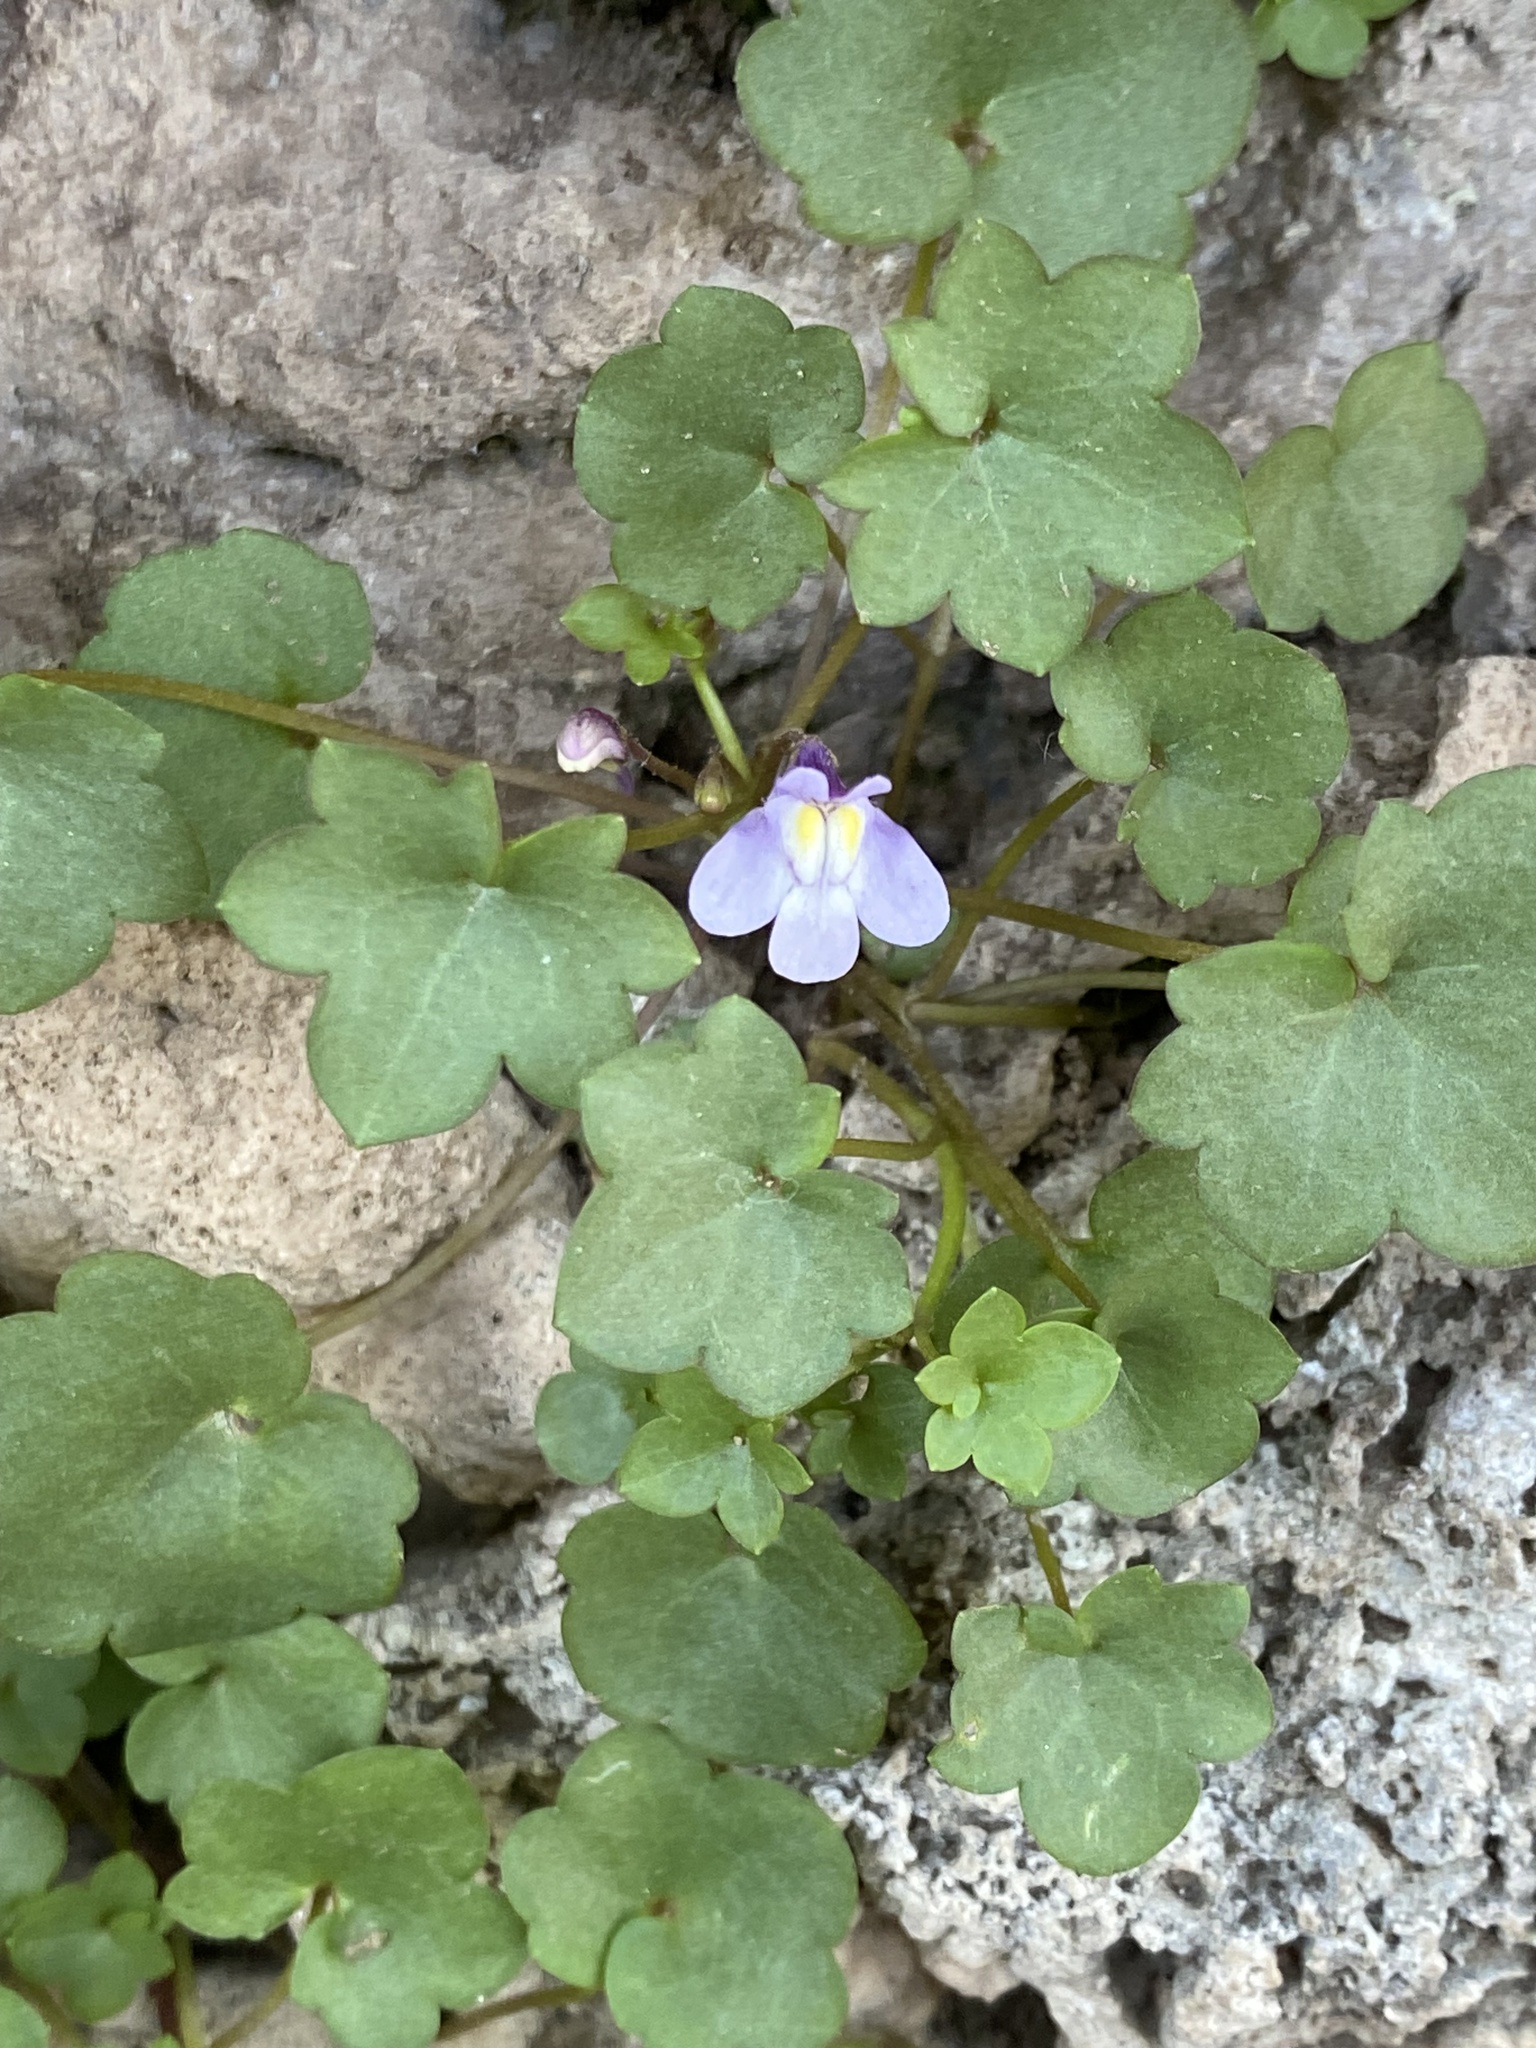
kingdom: Plantae
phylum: Tracheophyta
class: Magnoliopsida
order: Lamiales
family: Plantaginaceae
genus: Cymbalaria
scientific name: Cymbalaria muralis
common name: Ivy-leaved toadflax
